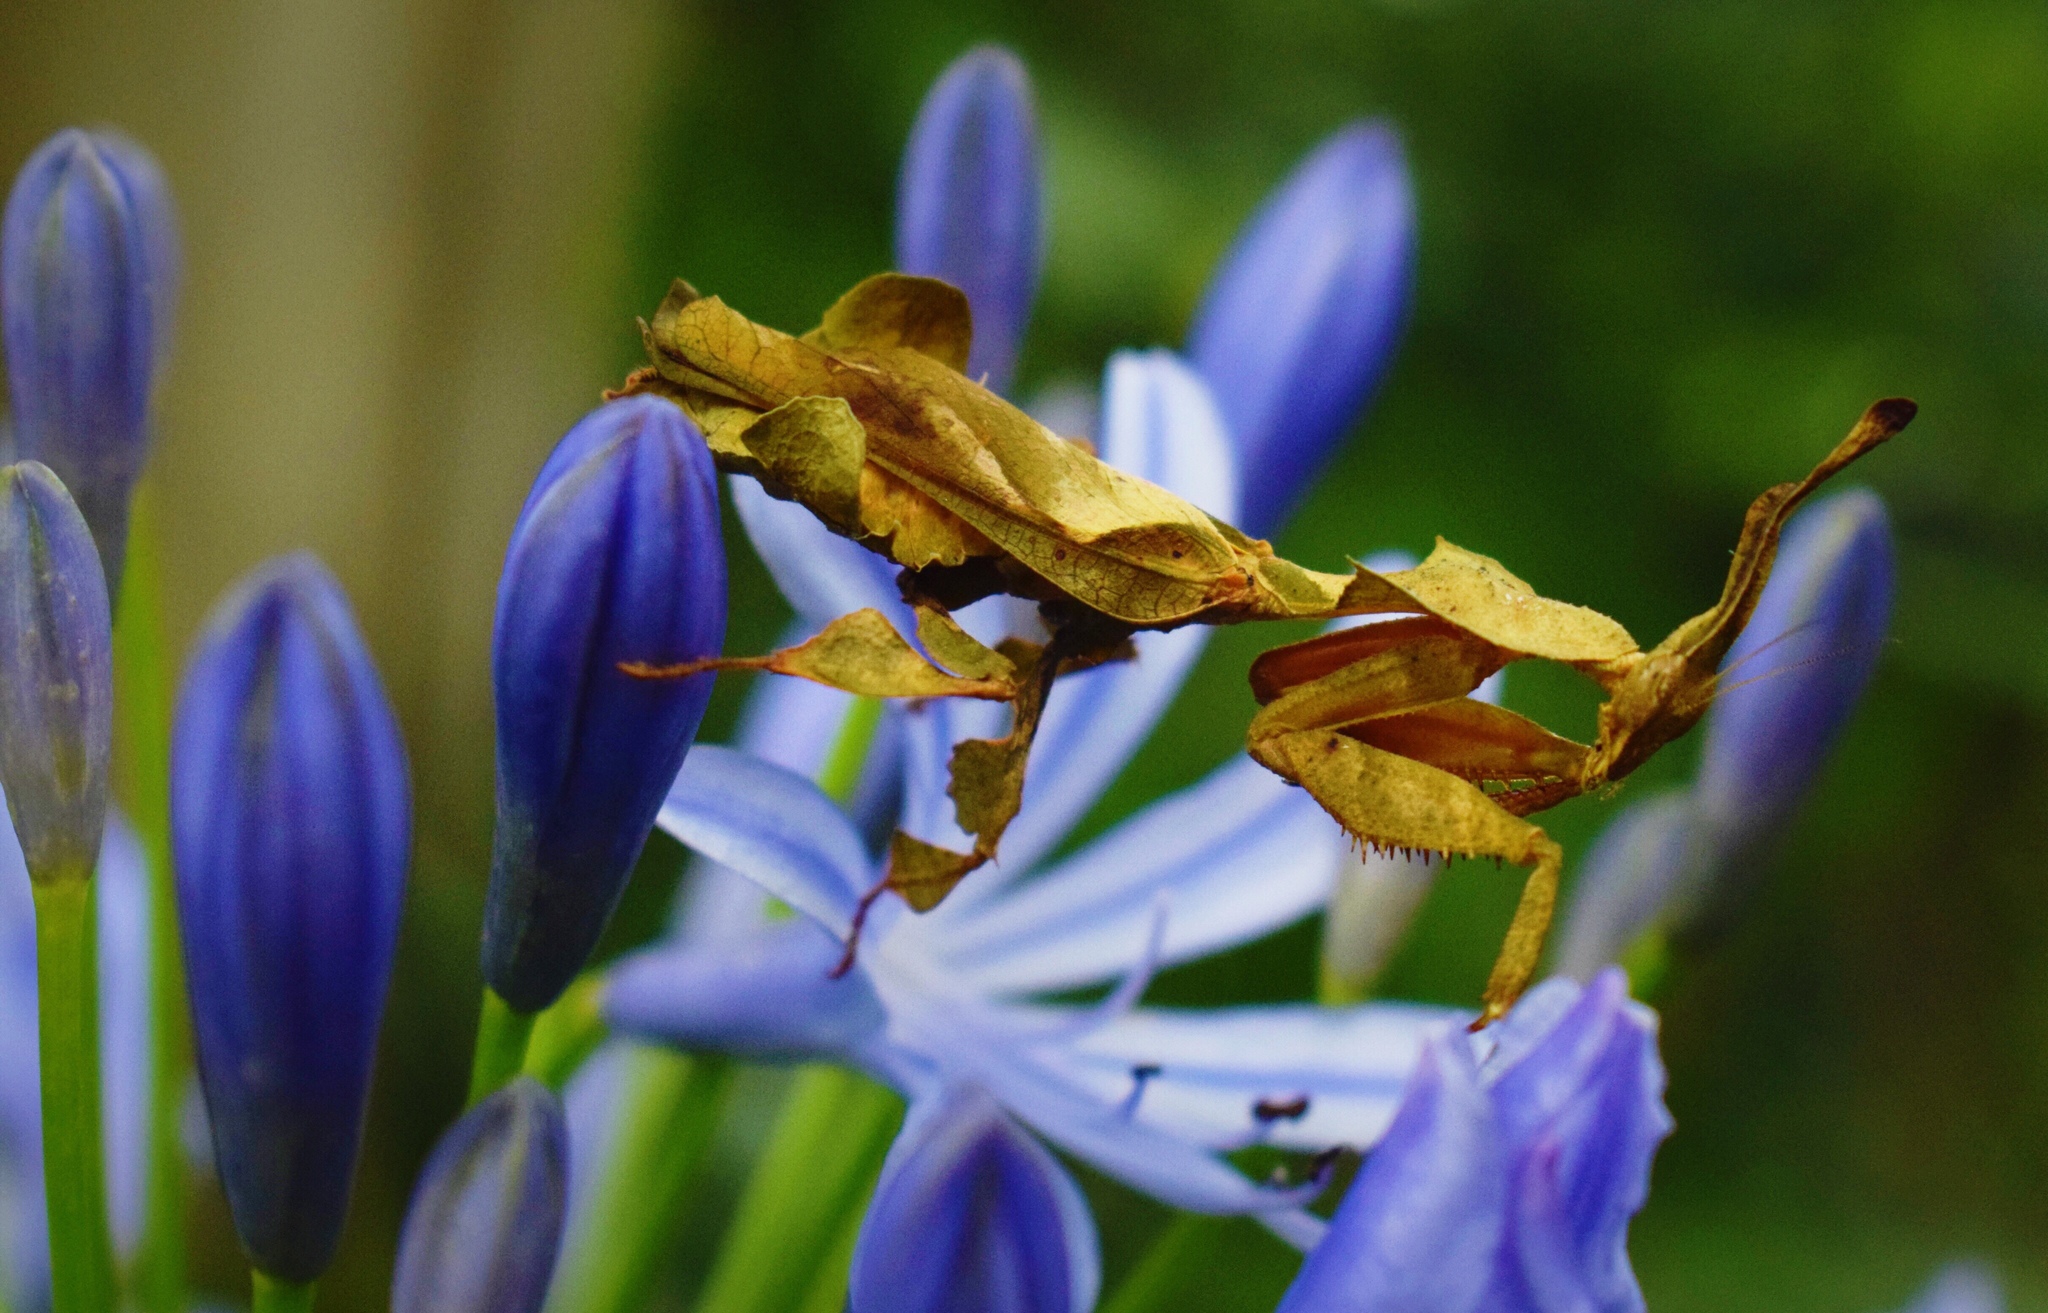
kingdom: Animalia
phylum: Arthropoda
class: Insecta
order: Mantodea
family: Hymenopodidae
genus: Phyllocrania
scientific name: Phyllocrania paradoxa
